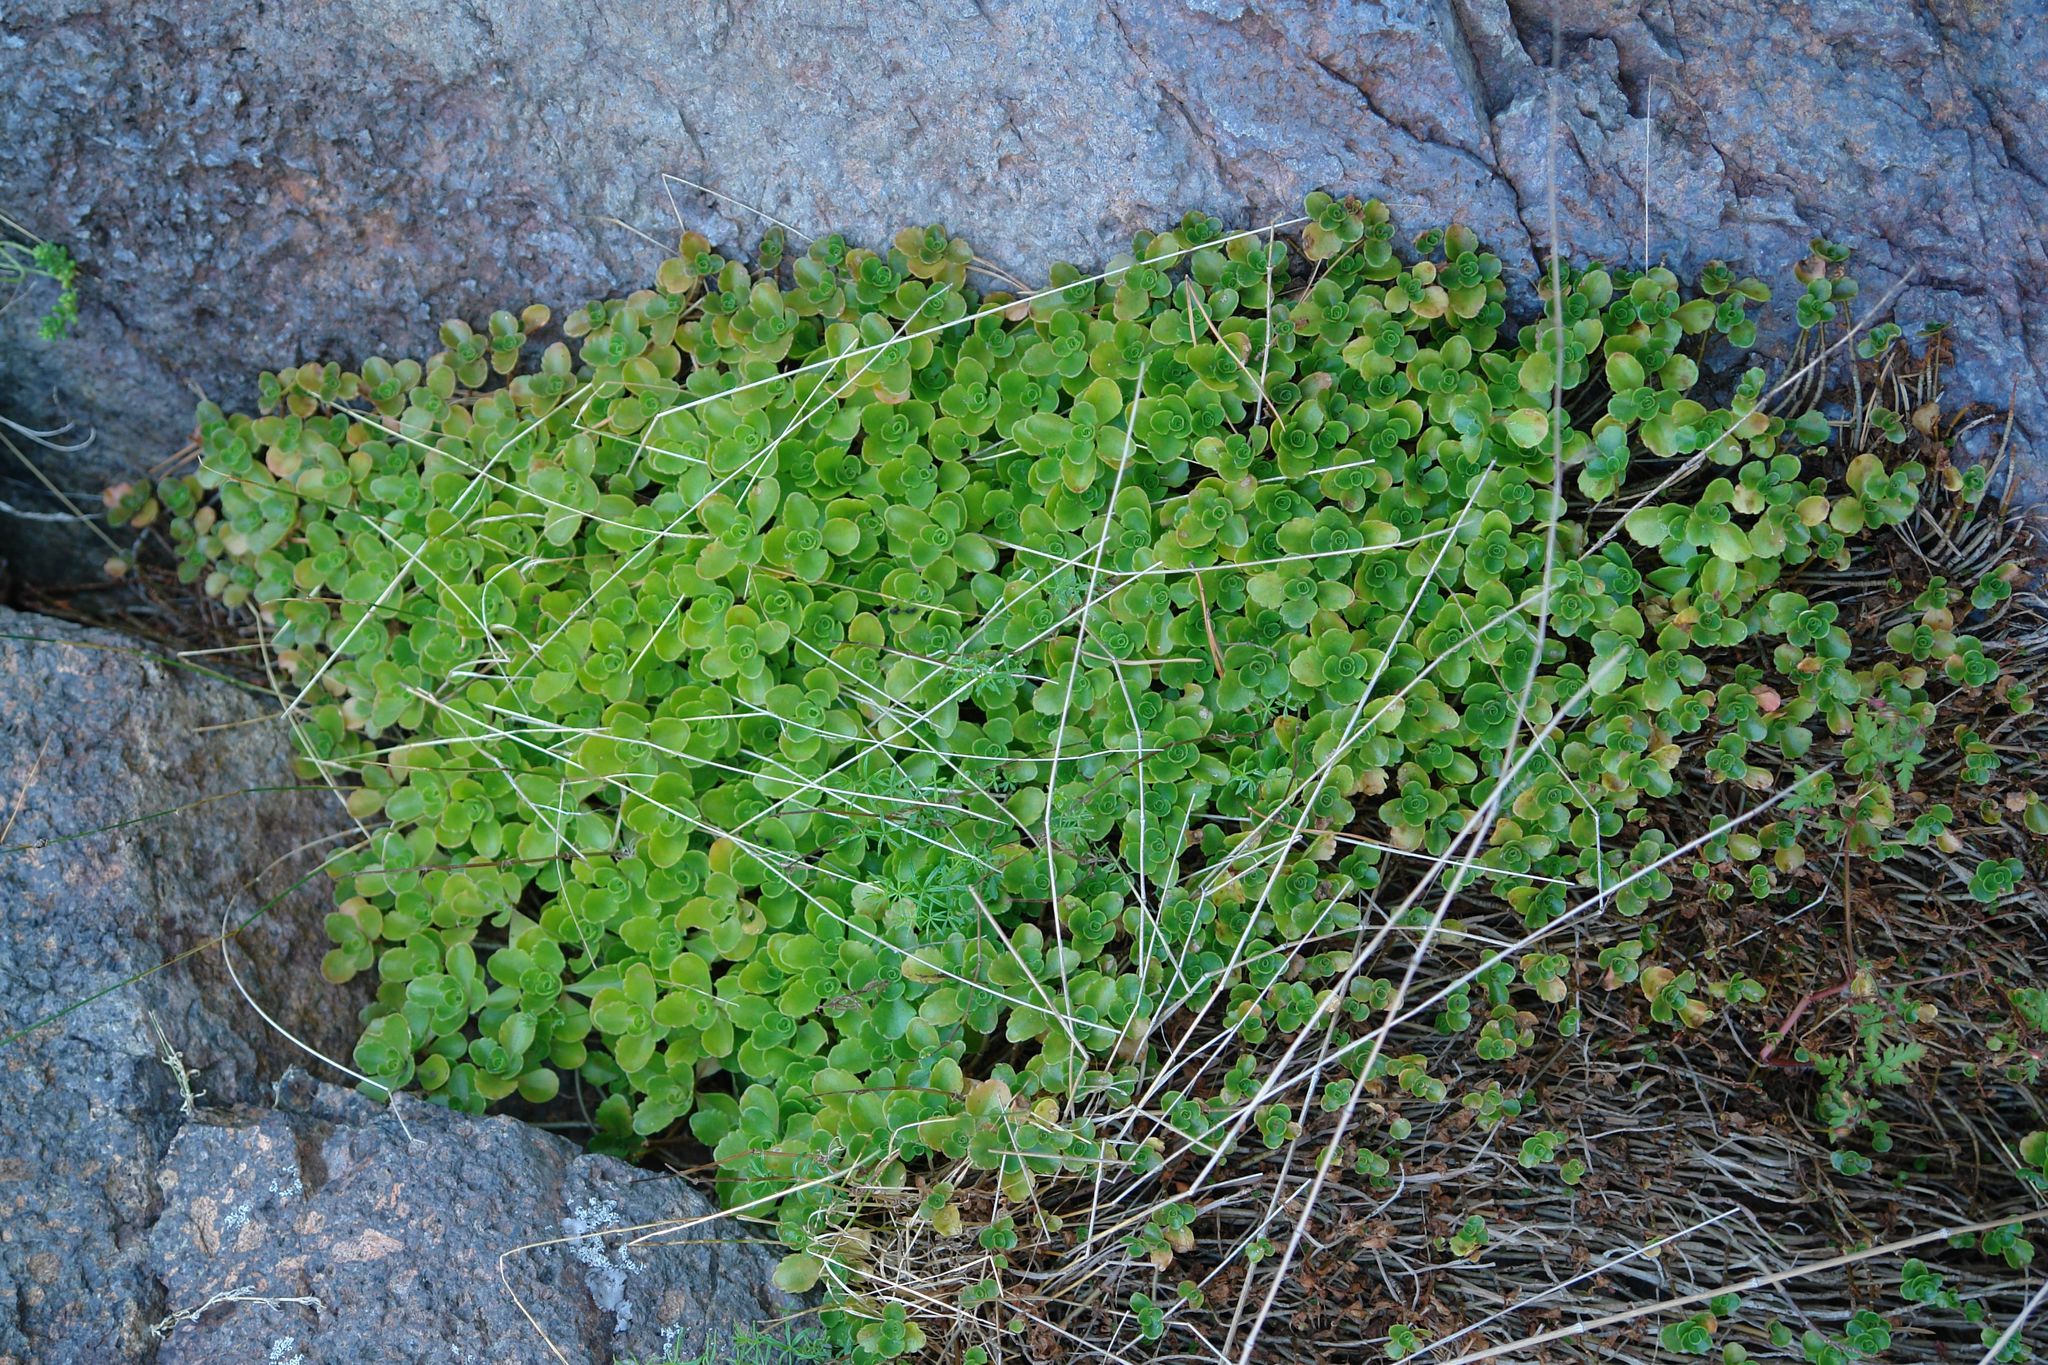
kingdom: Plantae
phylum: Tracheophyta
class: Magnoliopsida
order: Saxifragales
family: Crassulaceae
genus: Phedimus
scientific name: Phedimus spurius
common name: Caucasian stonecrop
